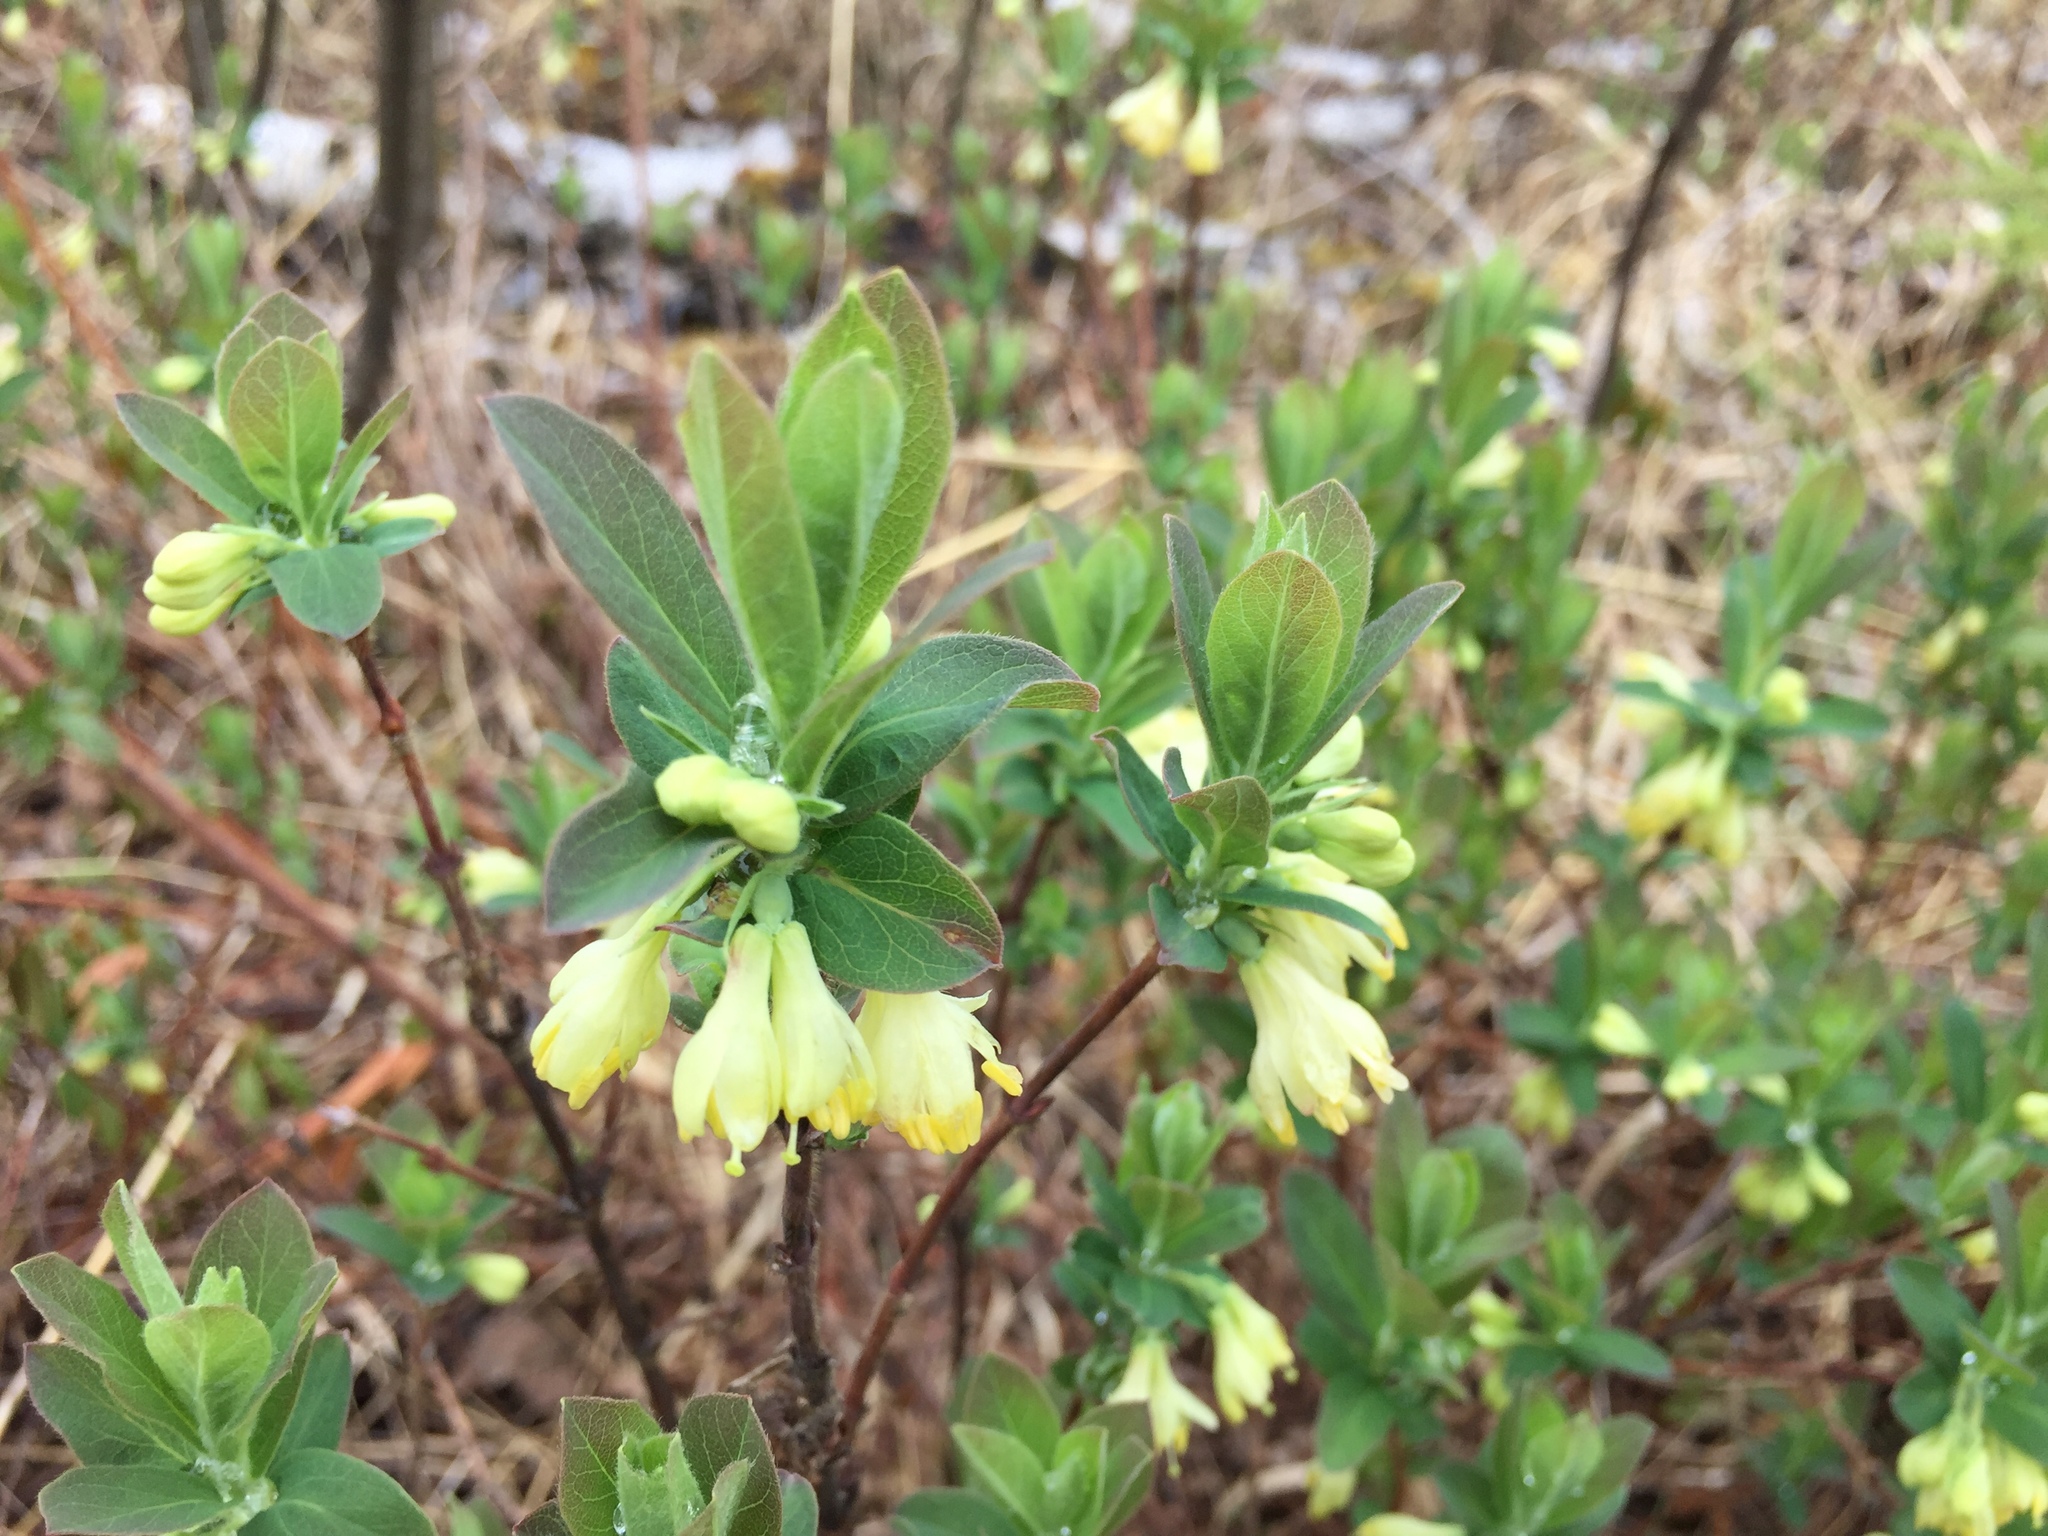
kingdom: Plantae
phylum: Tracheophyta
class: Magnoliopsida
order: Dipsacales
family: Caprifoliaceae
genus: Lonicera
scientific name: Lonicera villosa
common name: Mountain fly-honeysuckle
